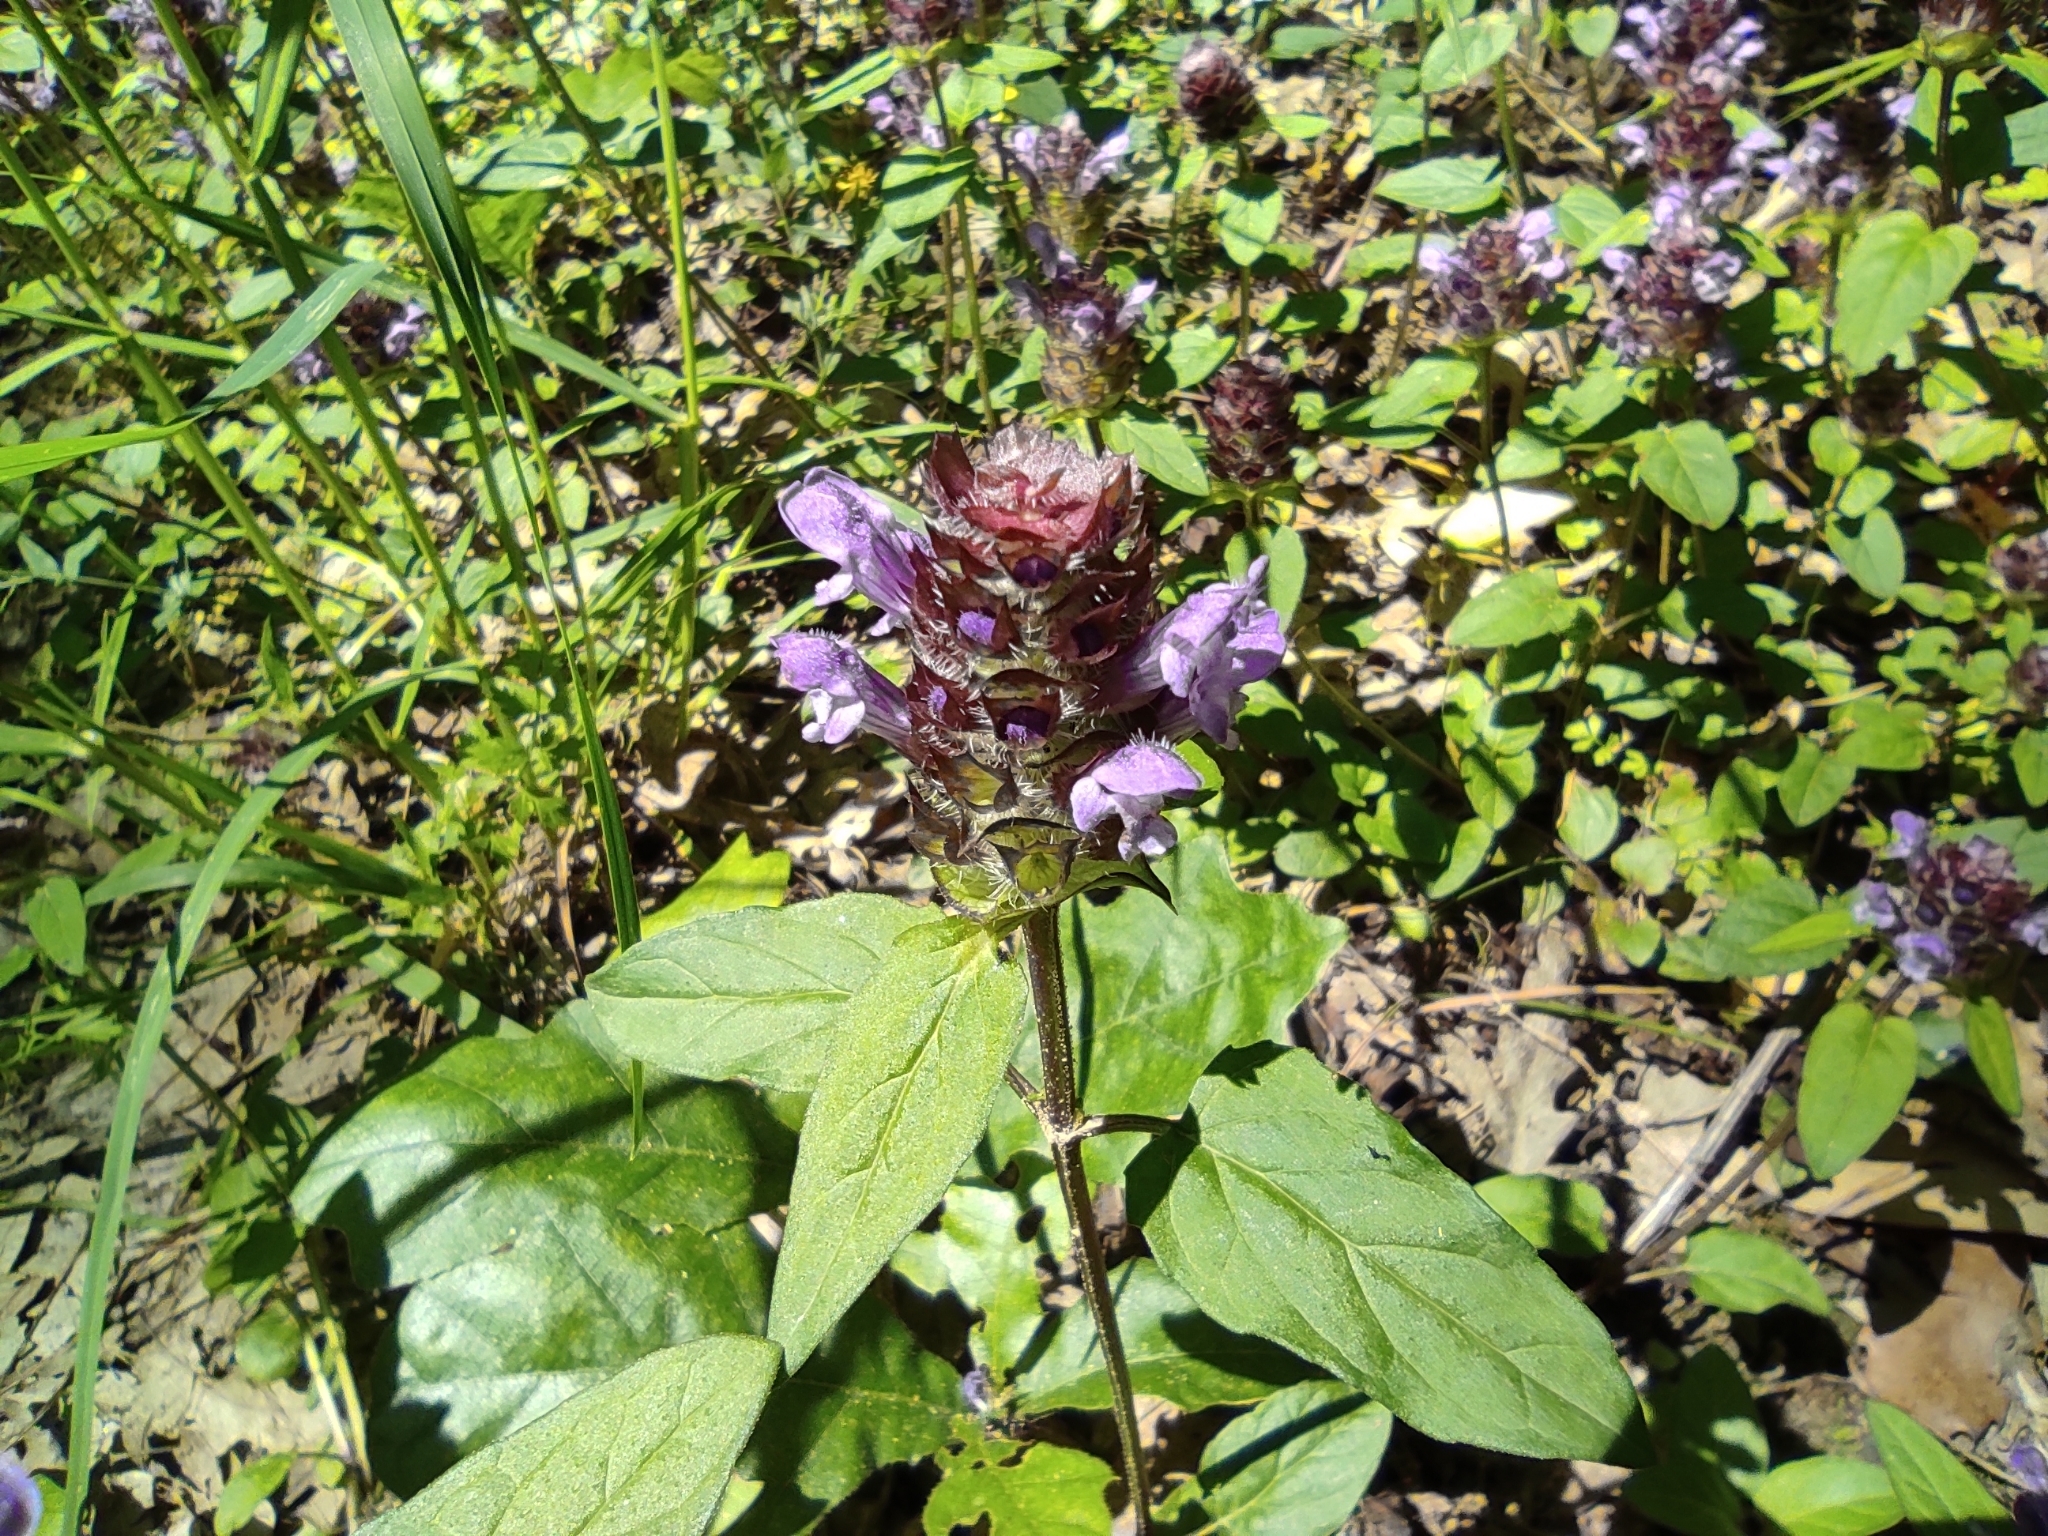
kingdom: Plantae
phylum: Tracheophyta
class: Magnoliopsida
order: Lamiales
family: Lamiaceae
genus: Prunella
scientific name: Prunella vulgaris
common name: Heal-all
